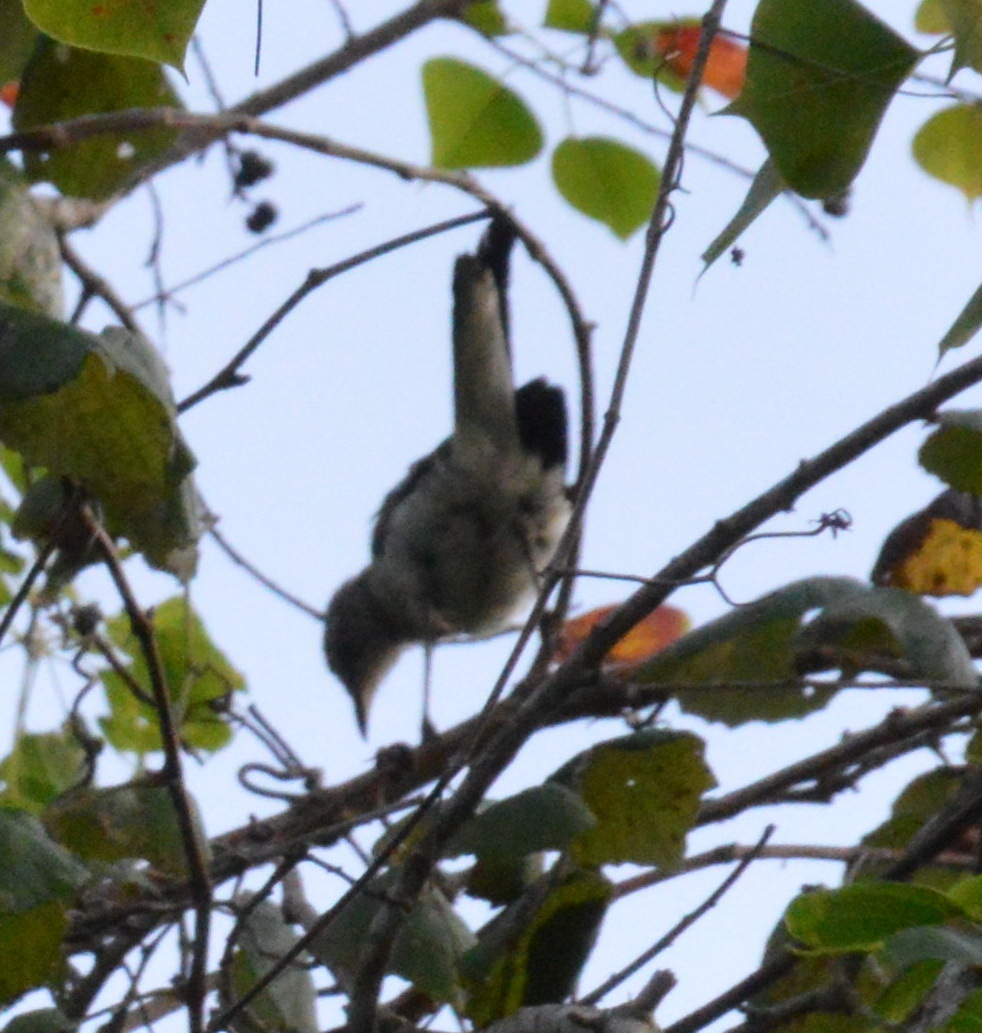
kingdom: Animalia
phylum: Chordata
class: Aves
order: Passeriformes
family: Mimidae
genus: Mimus
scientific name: Mimus polyglottos
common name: Northern mockingbird
